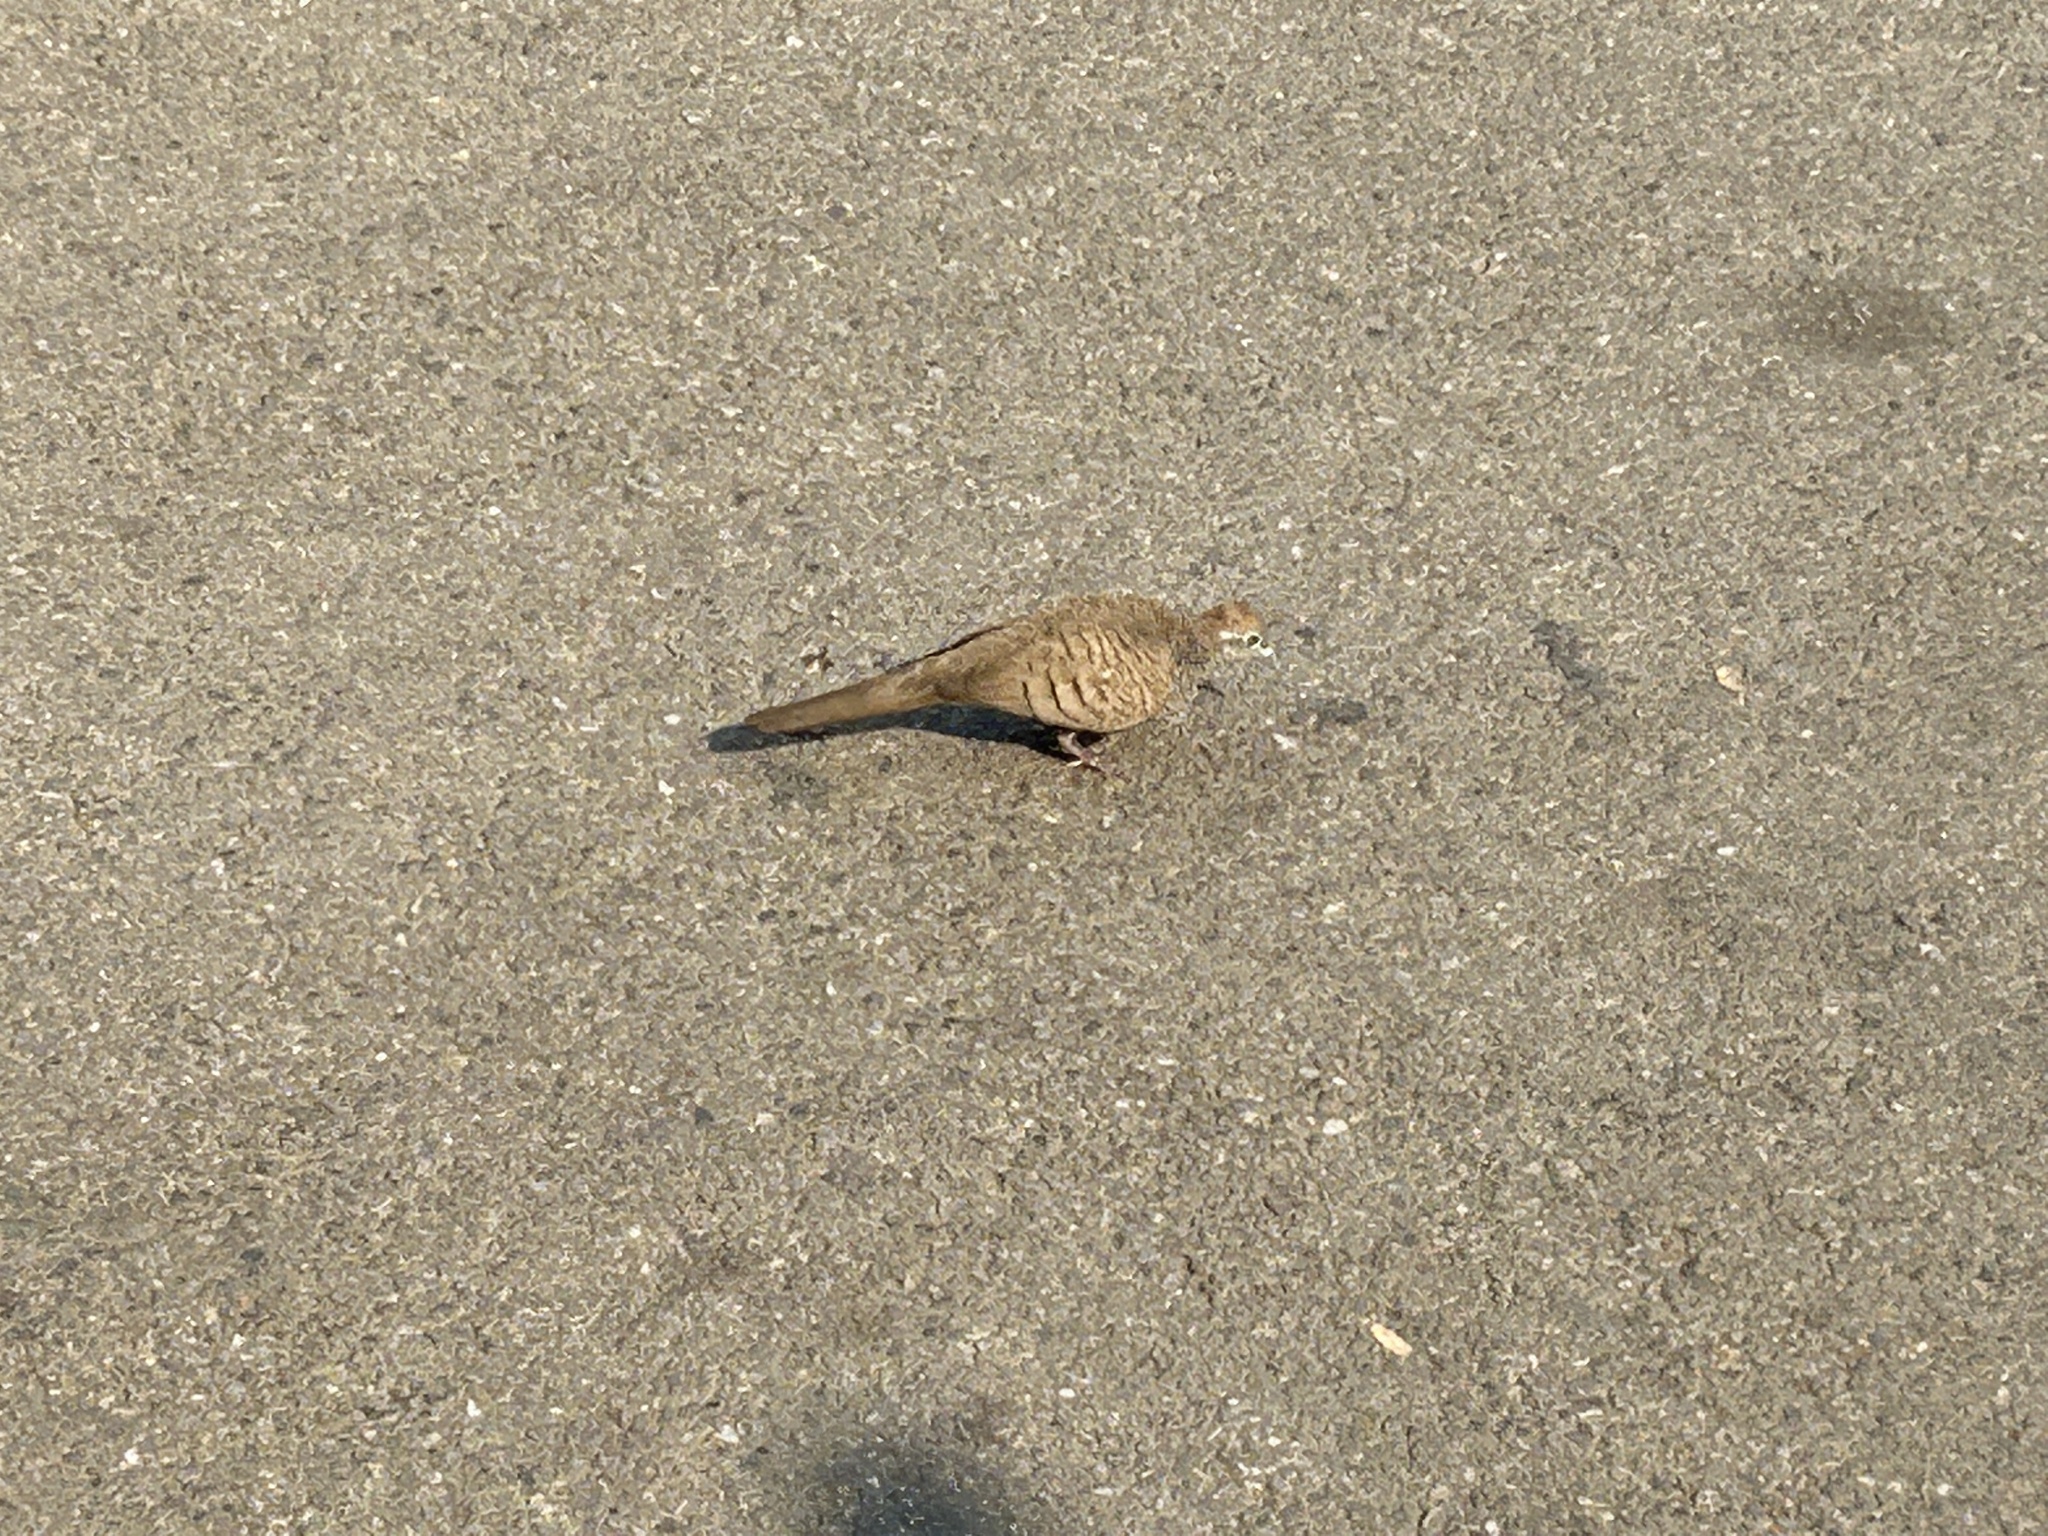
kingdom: Animalia
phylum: Chordata
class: Aves
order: Columbiformes
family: Columbidae
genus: Geopelia
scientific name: Geopelia striata
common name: Zebra dove
